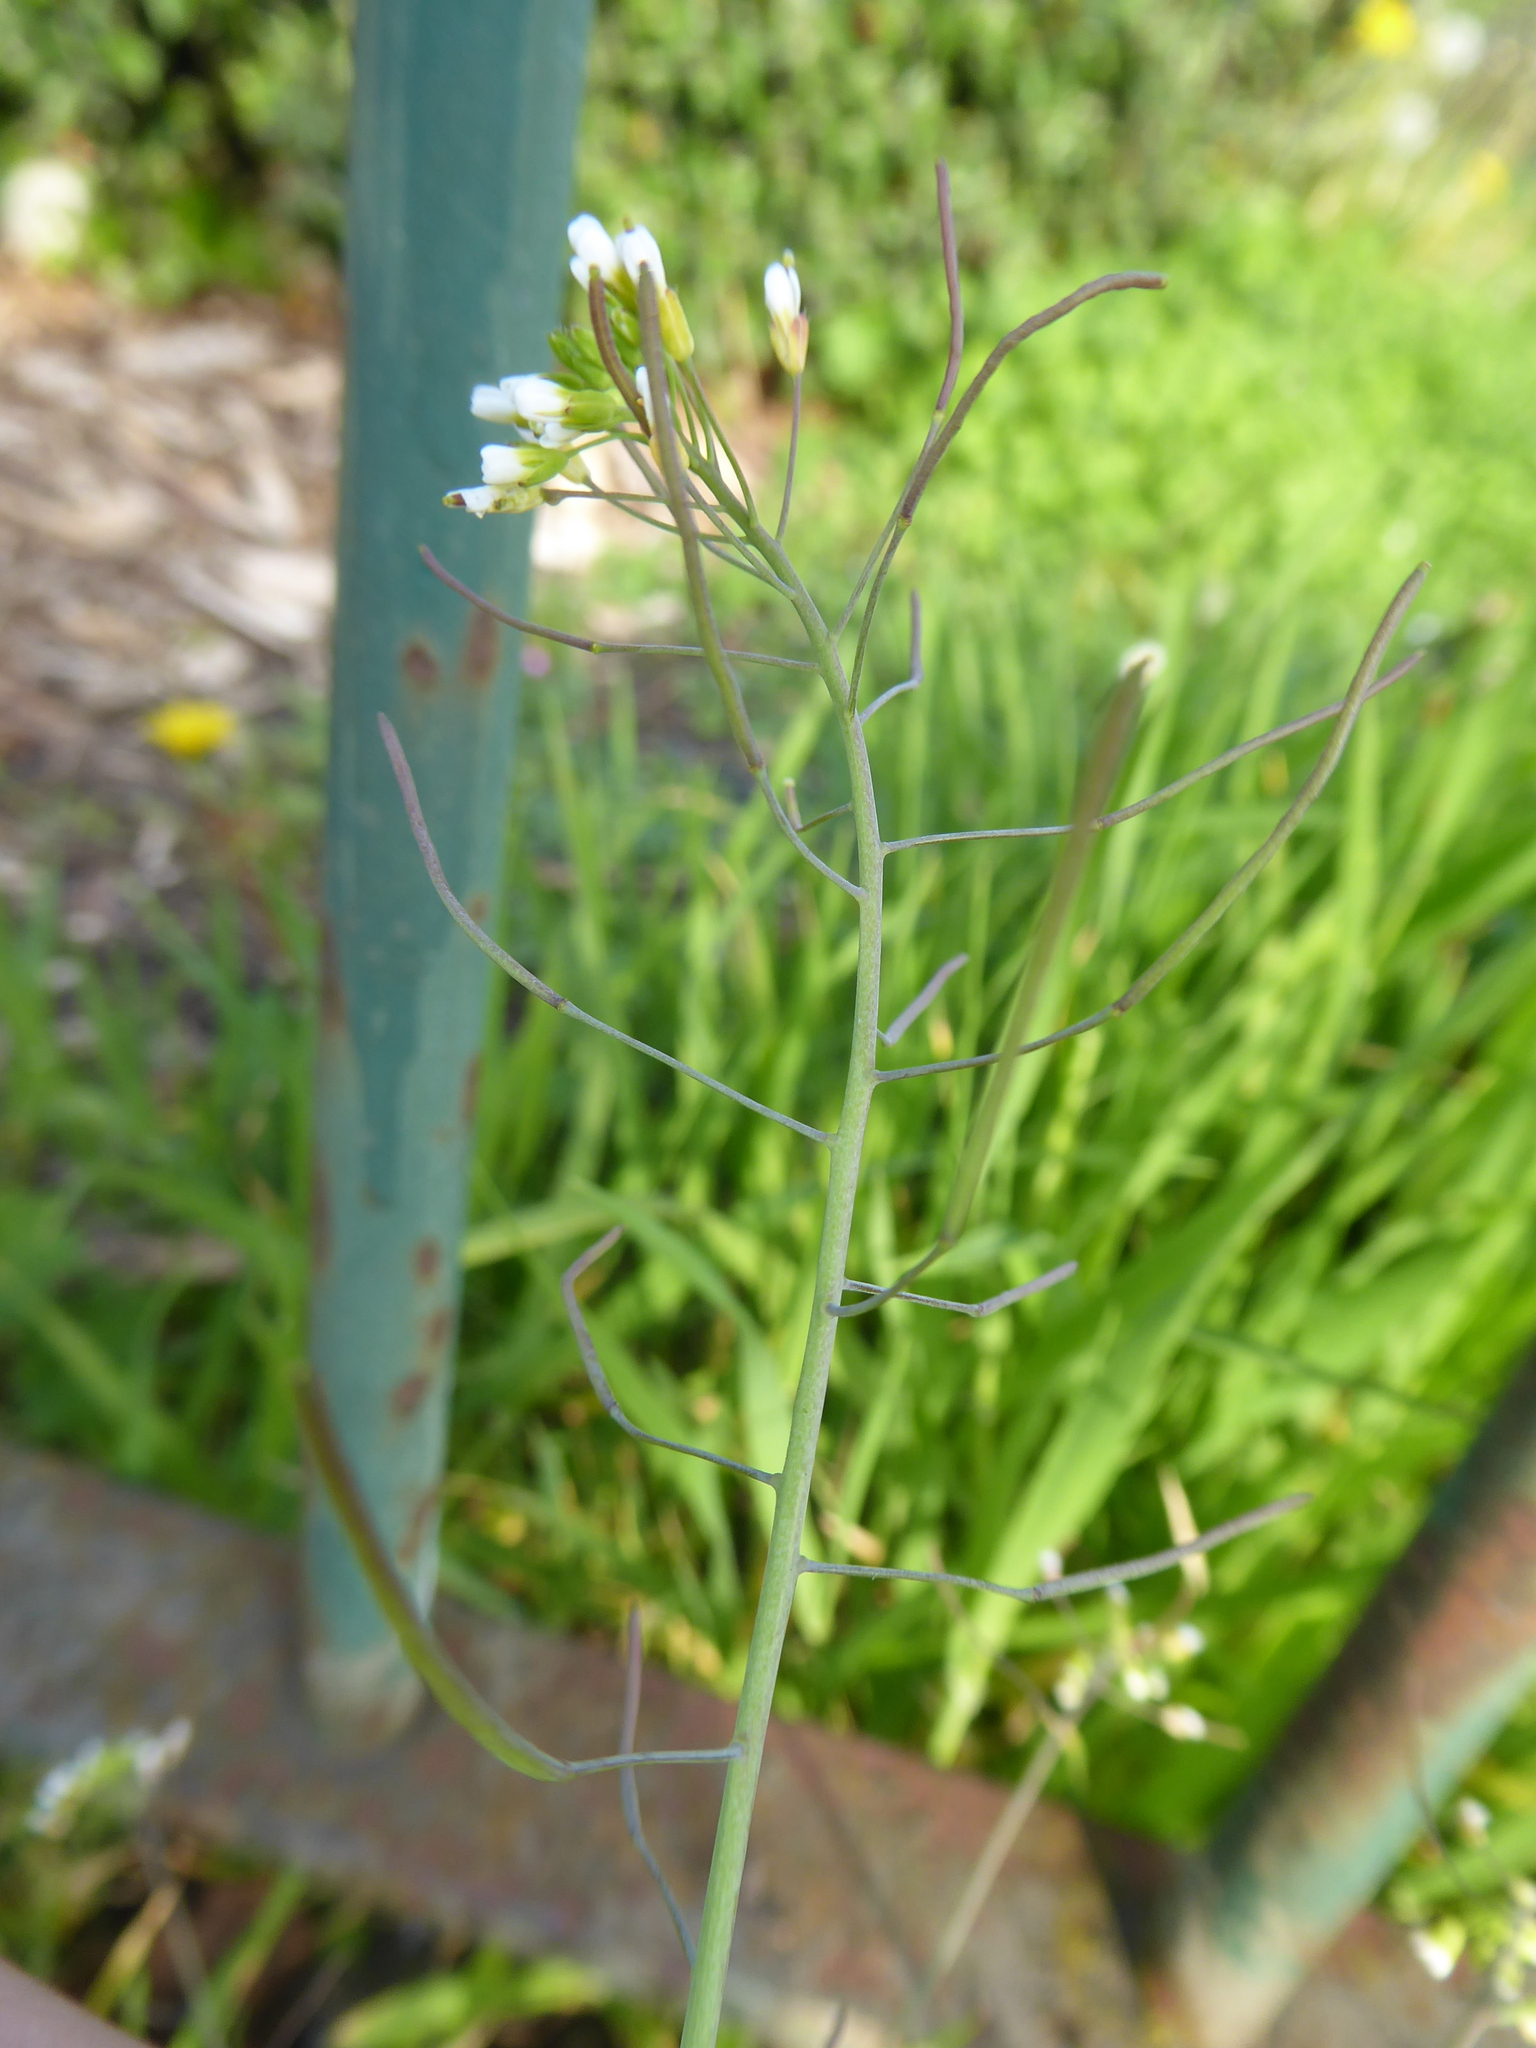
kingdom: Plantae
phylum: Tracheophyta
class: Magnoliopsida
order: Brassicales
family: Brassicaceae
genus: Arabidopsis
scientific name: Arabidopsis thaliana
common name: Thale cress
